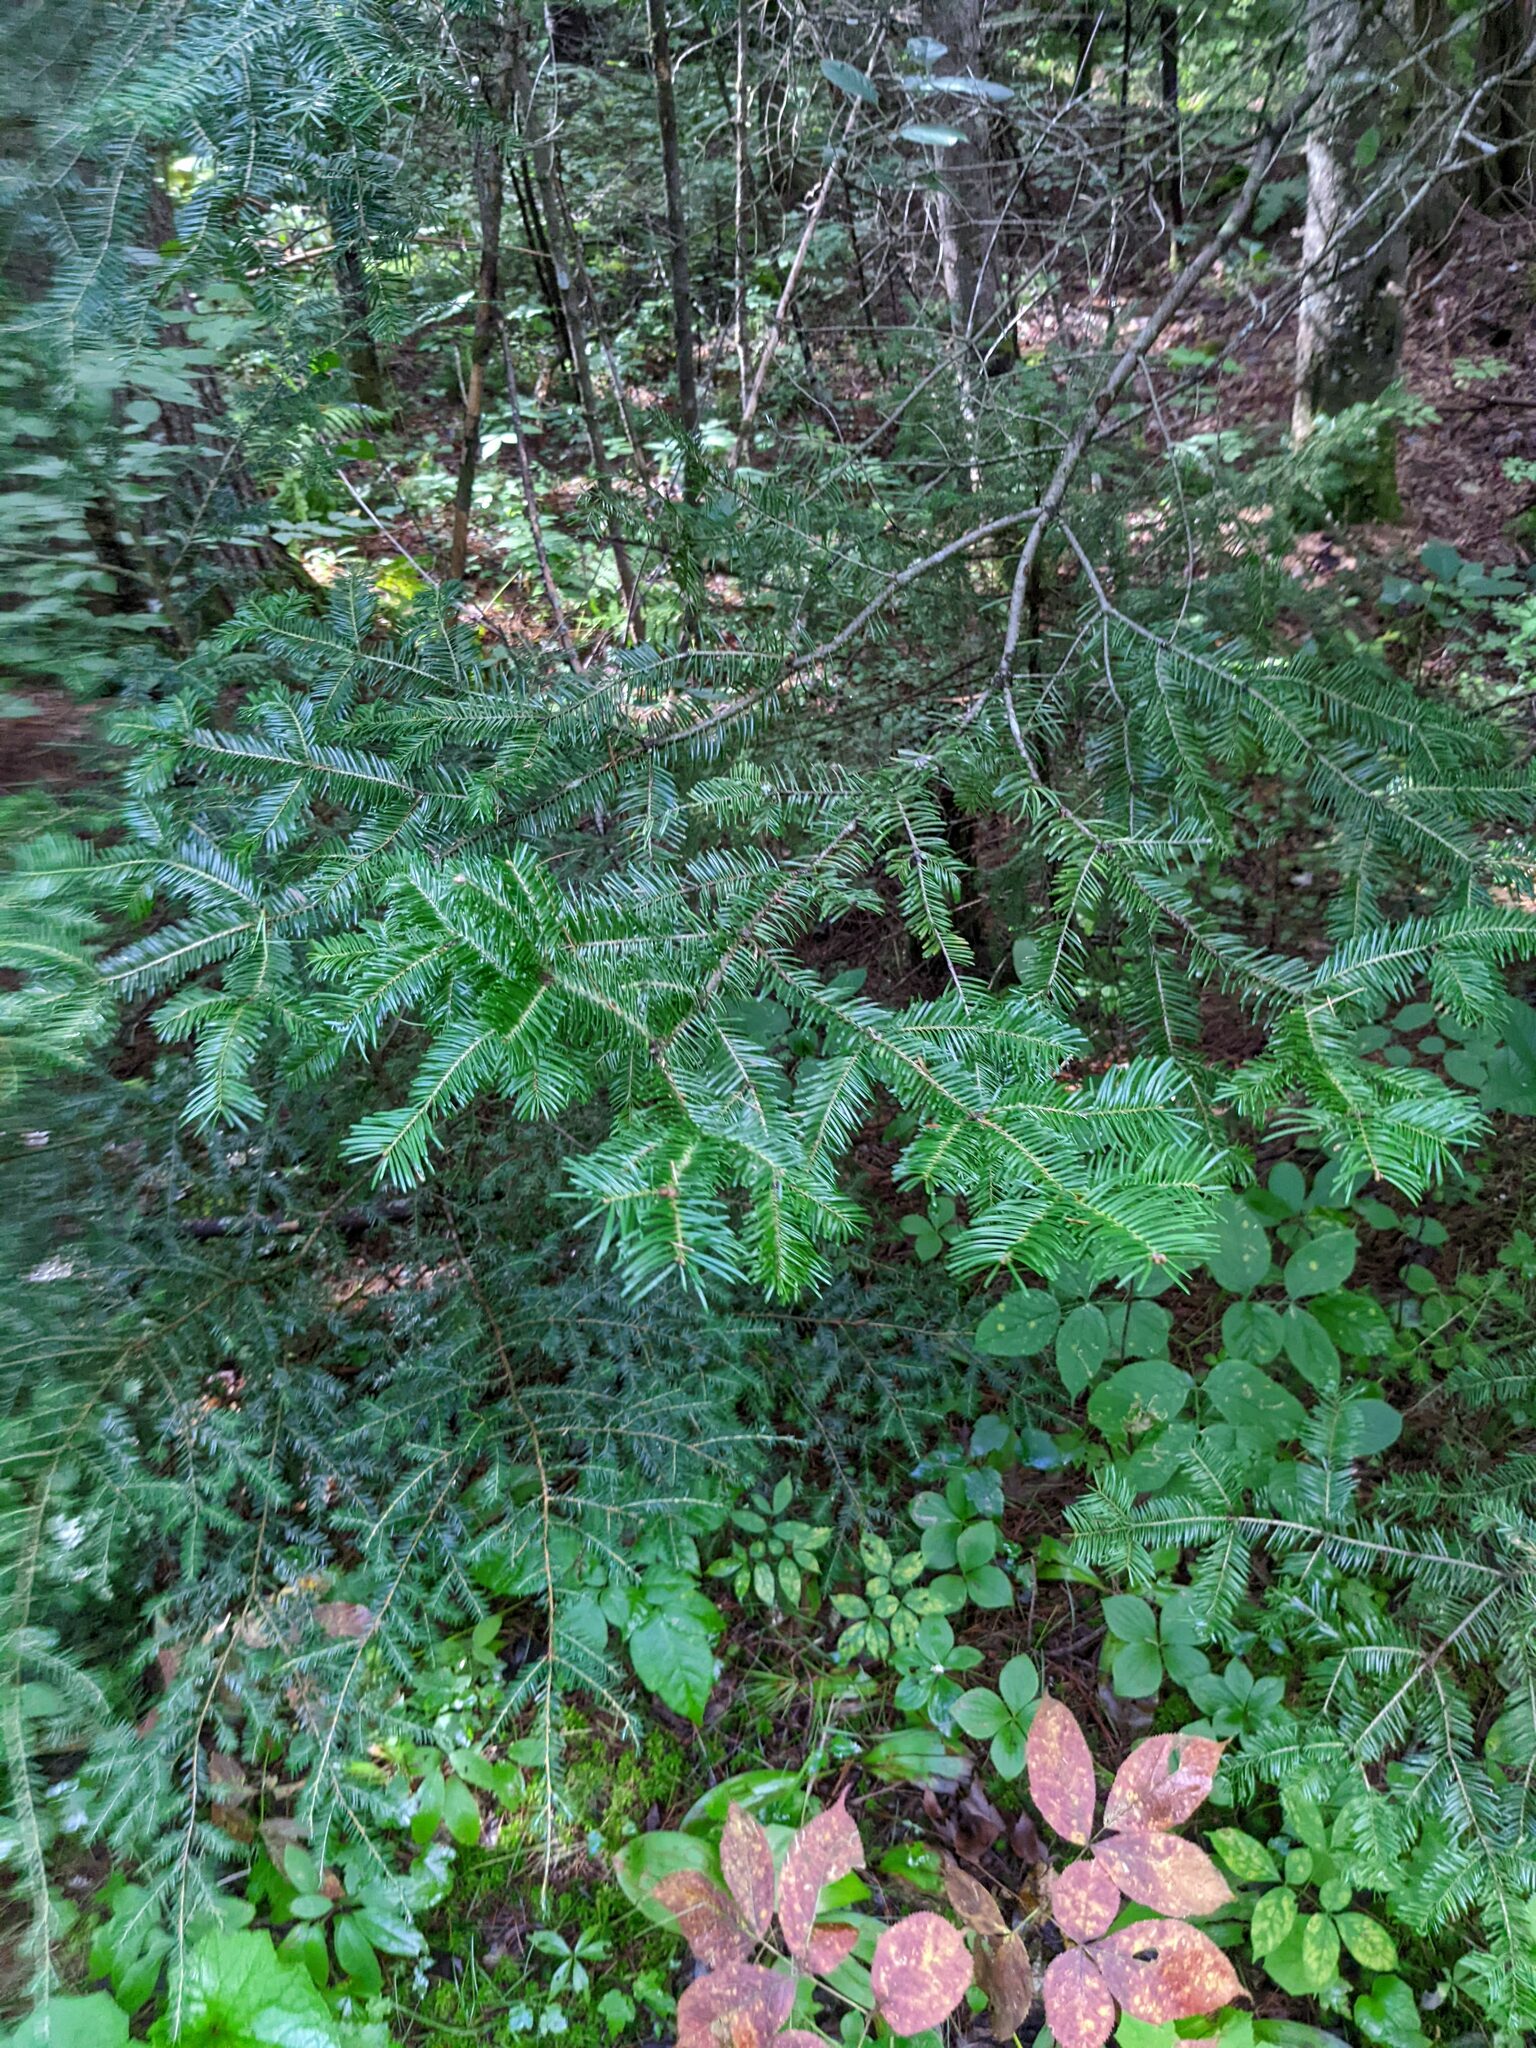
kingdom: Plantae
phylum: Tracheophyta
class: Pinopsida
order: Pinales
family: Pinaceae
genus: Abies
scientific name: Abies balsamea
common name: Balsam fir
